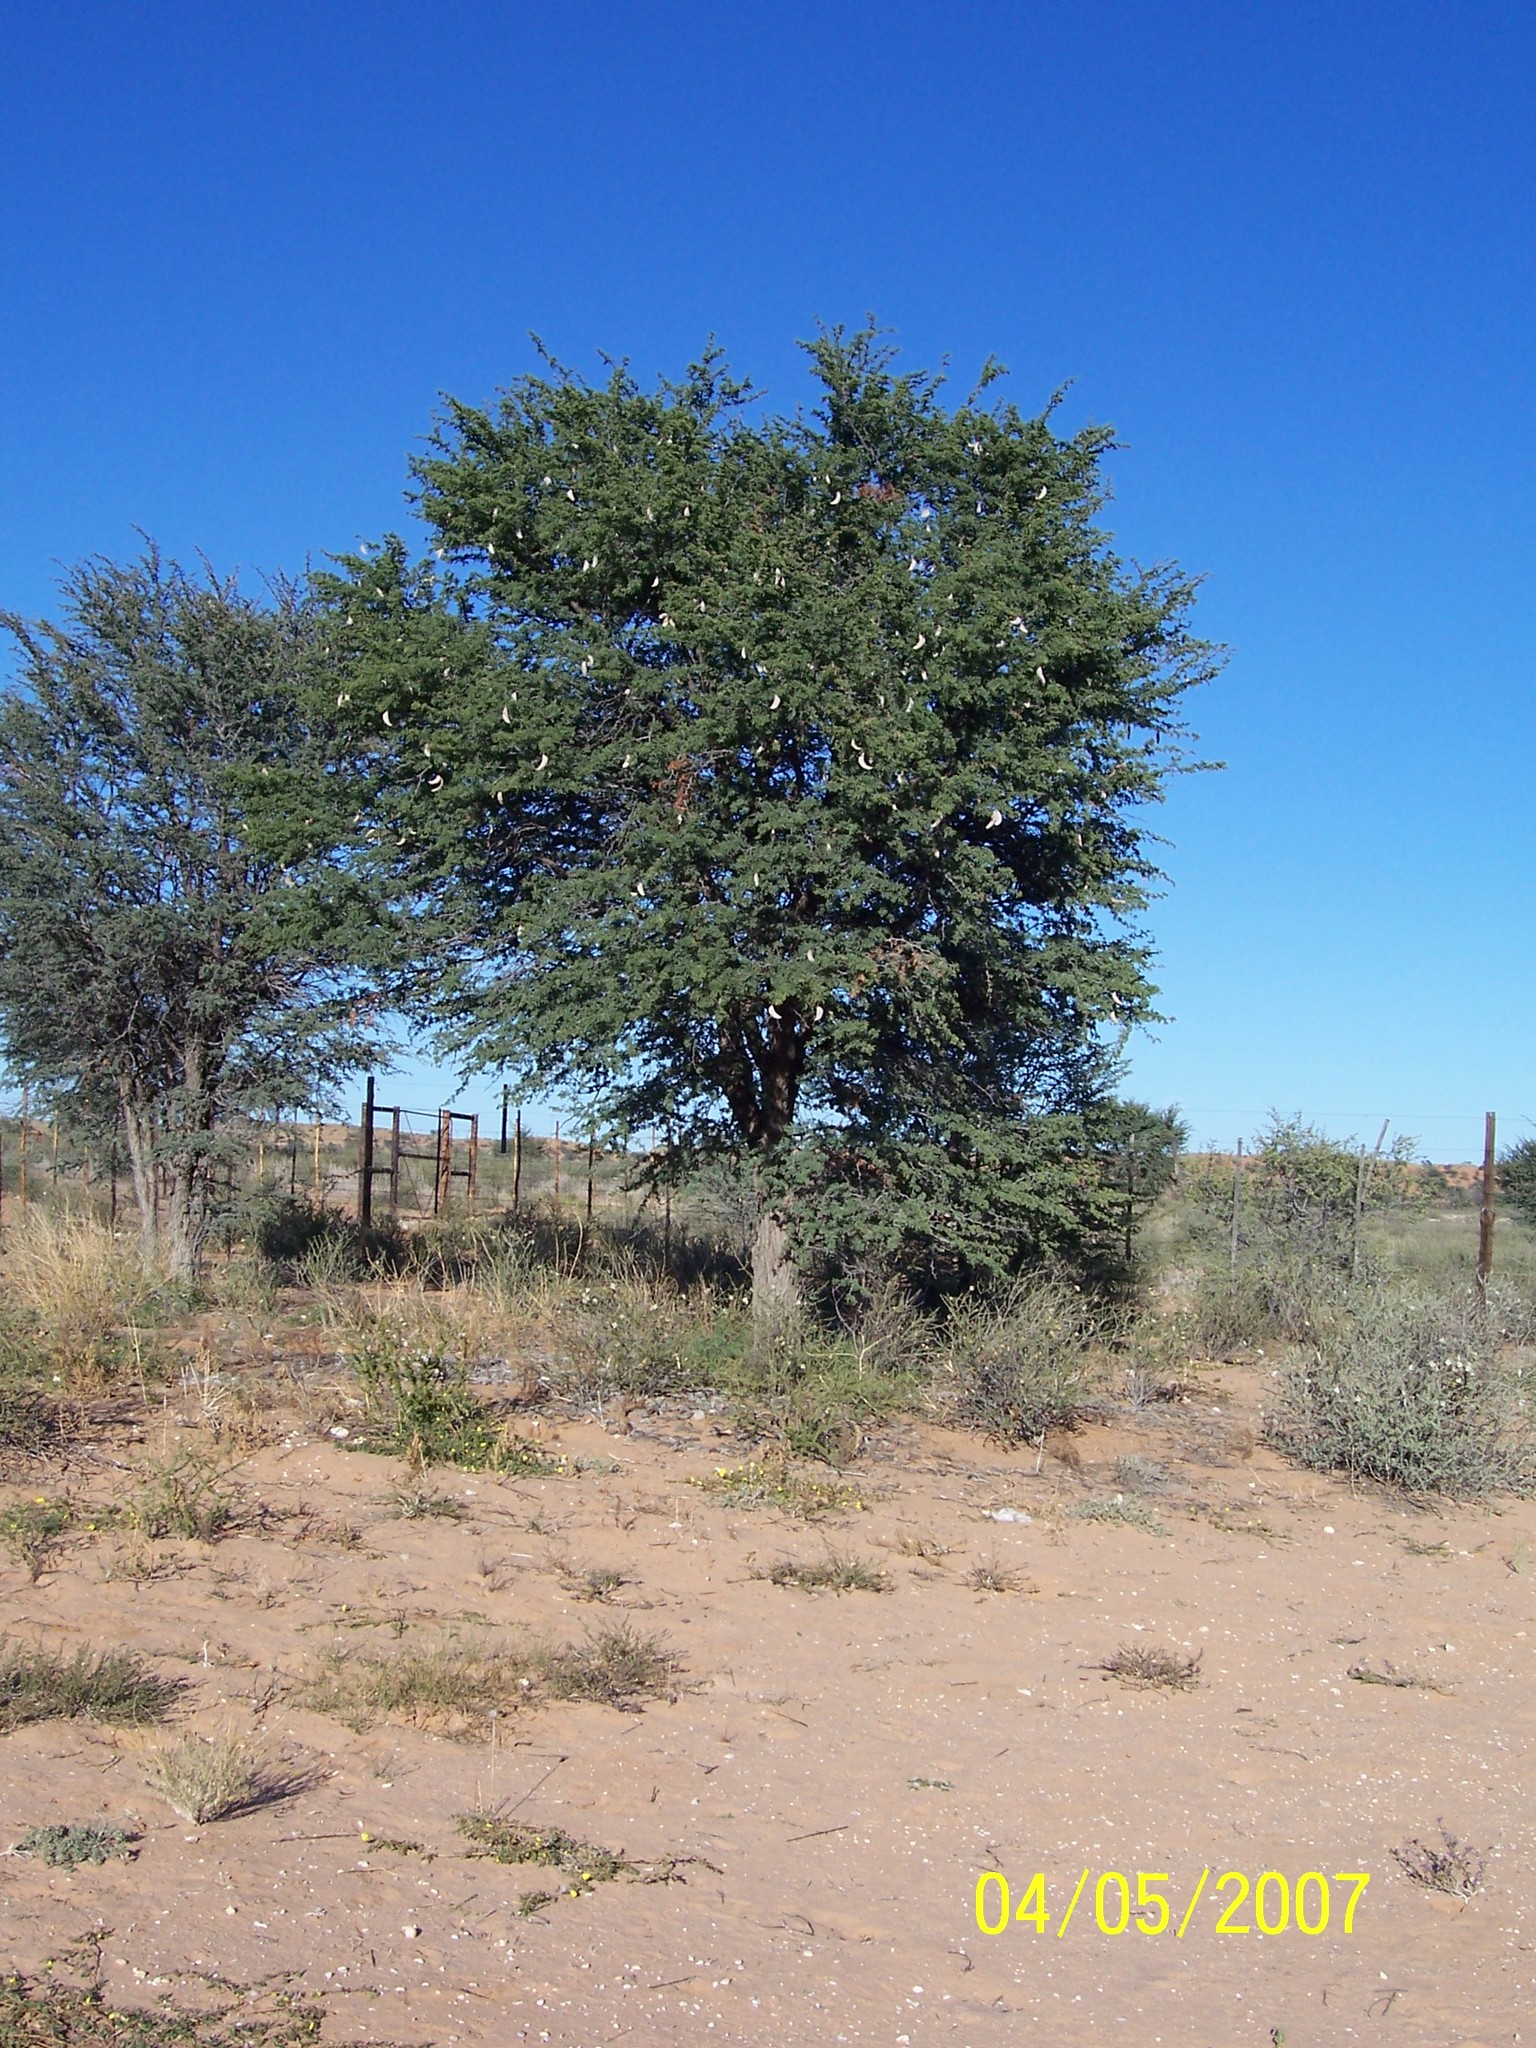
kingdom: Plantae
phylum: Tracheophyta
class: Magnoliopsida
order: Fabales
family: Fabaceae
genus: Vachellia
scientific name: Vachellia erioloba
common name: Camel thorn
